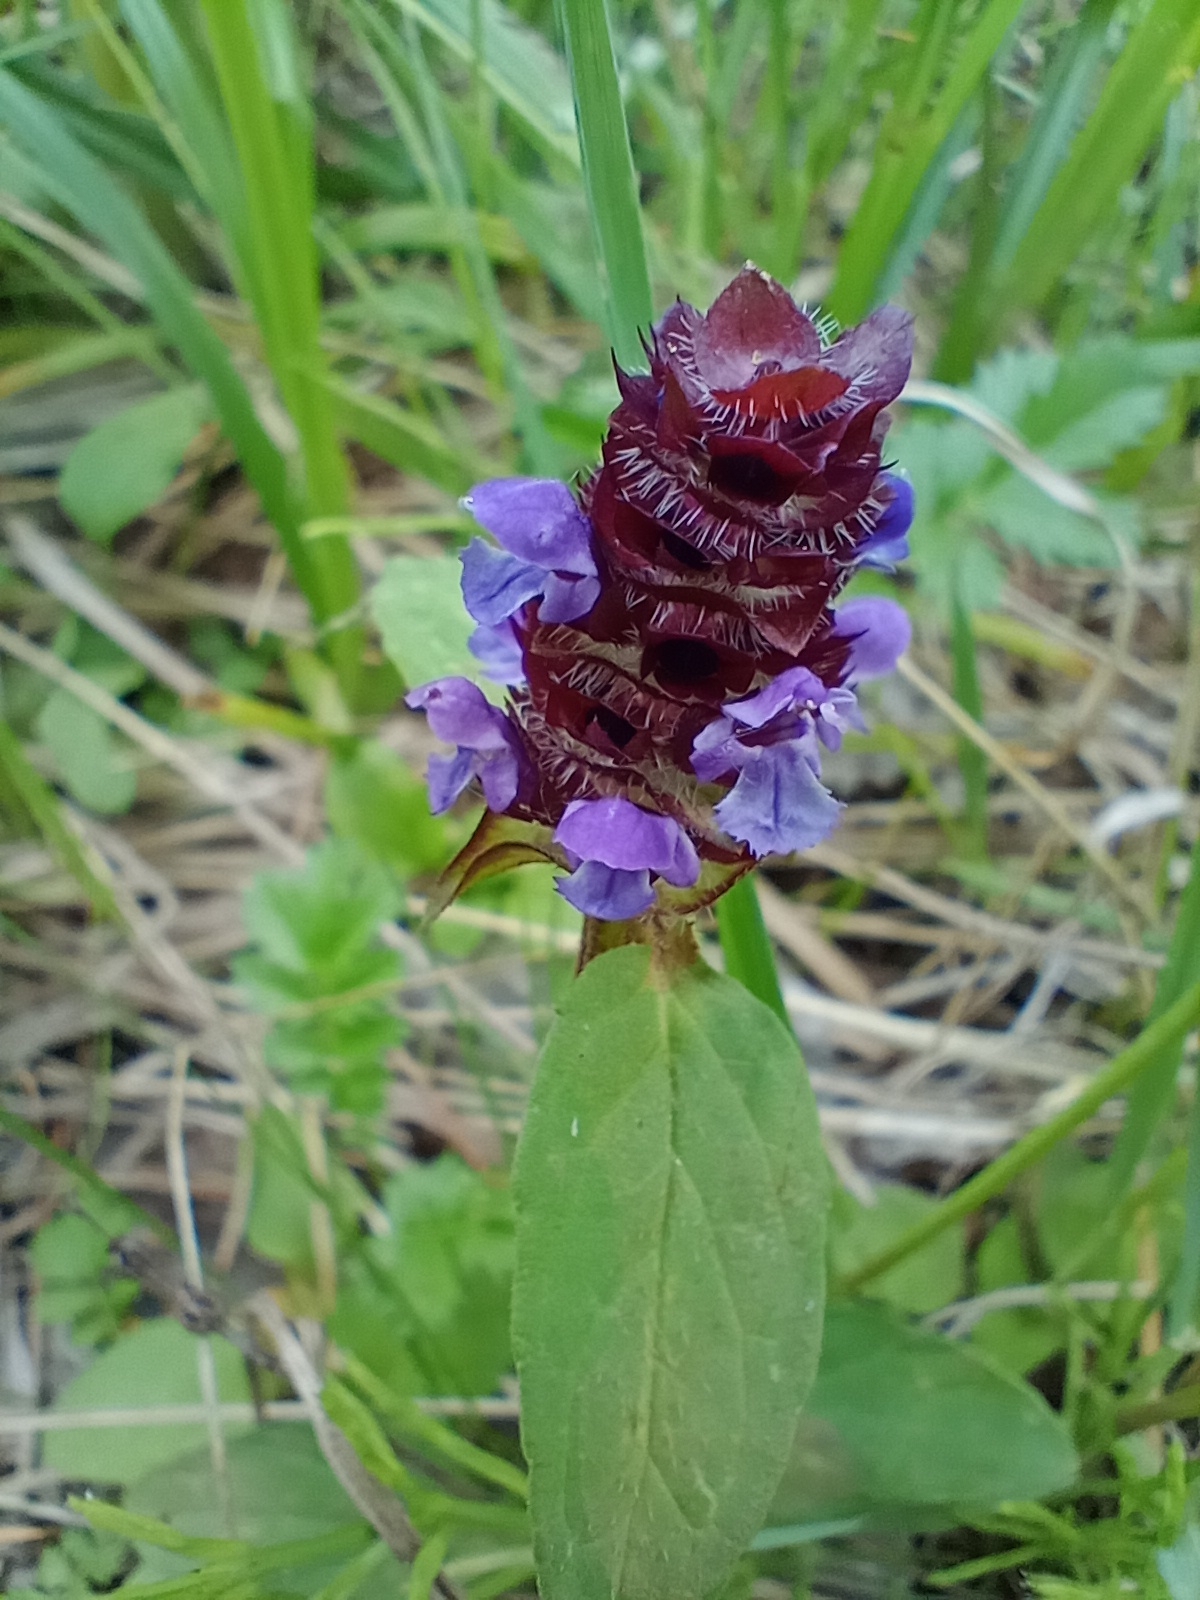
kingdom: Plantae
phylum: Tracheophyta
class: Magnoliopsida
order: Lamiales
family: Lamiaceae
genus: Prunella
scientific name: Prunella vulgaris
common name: Heal-all
